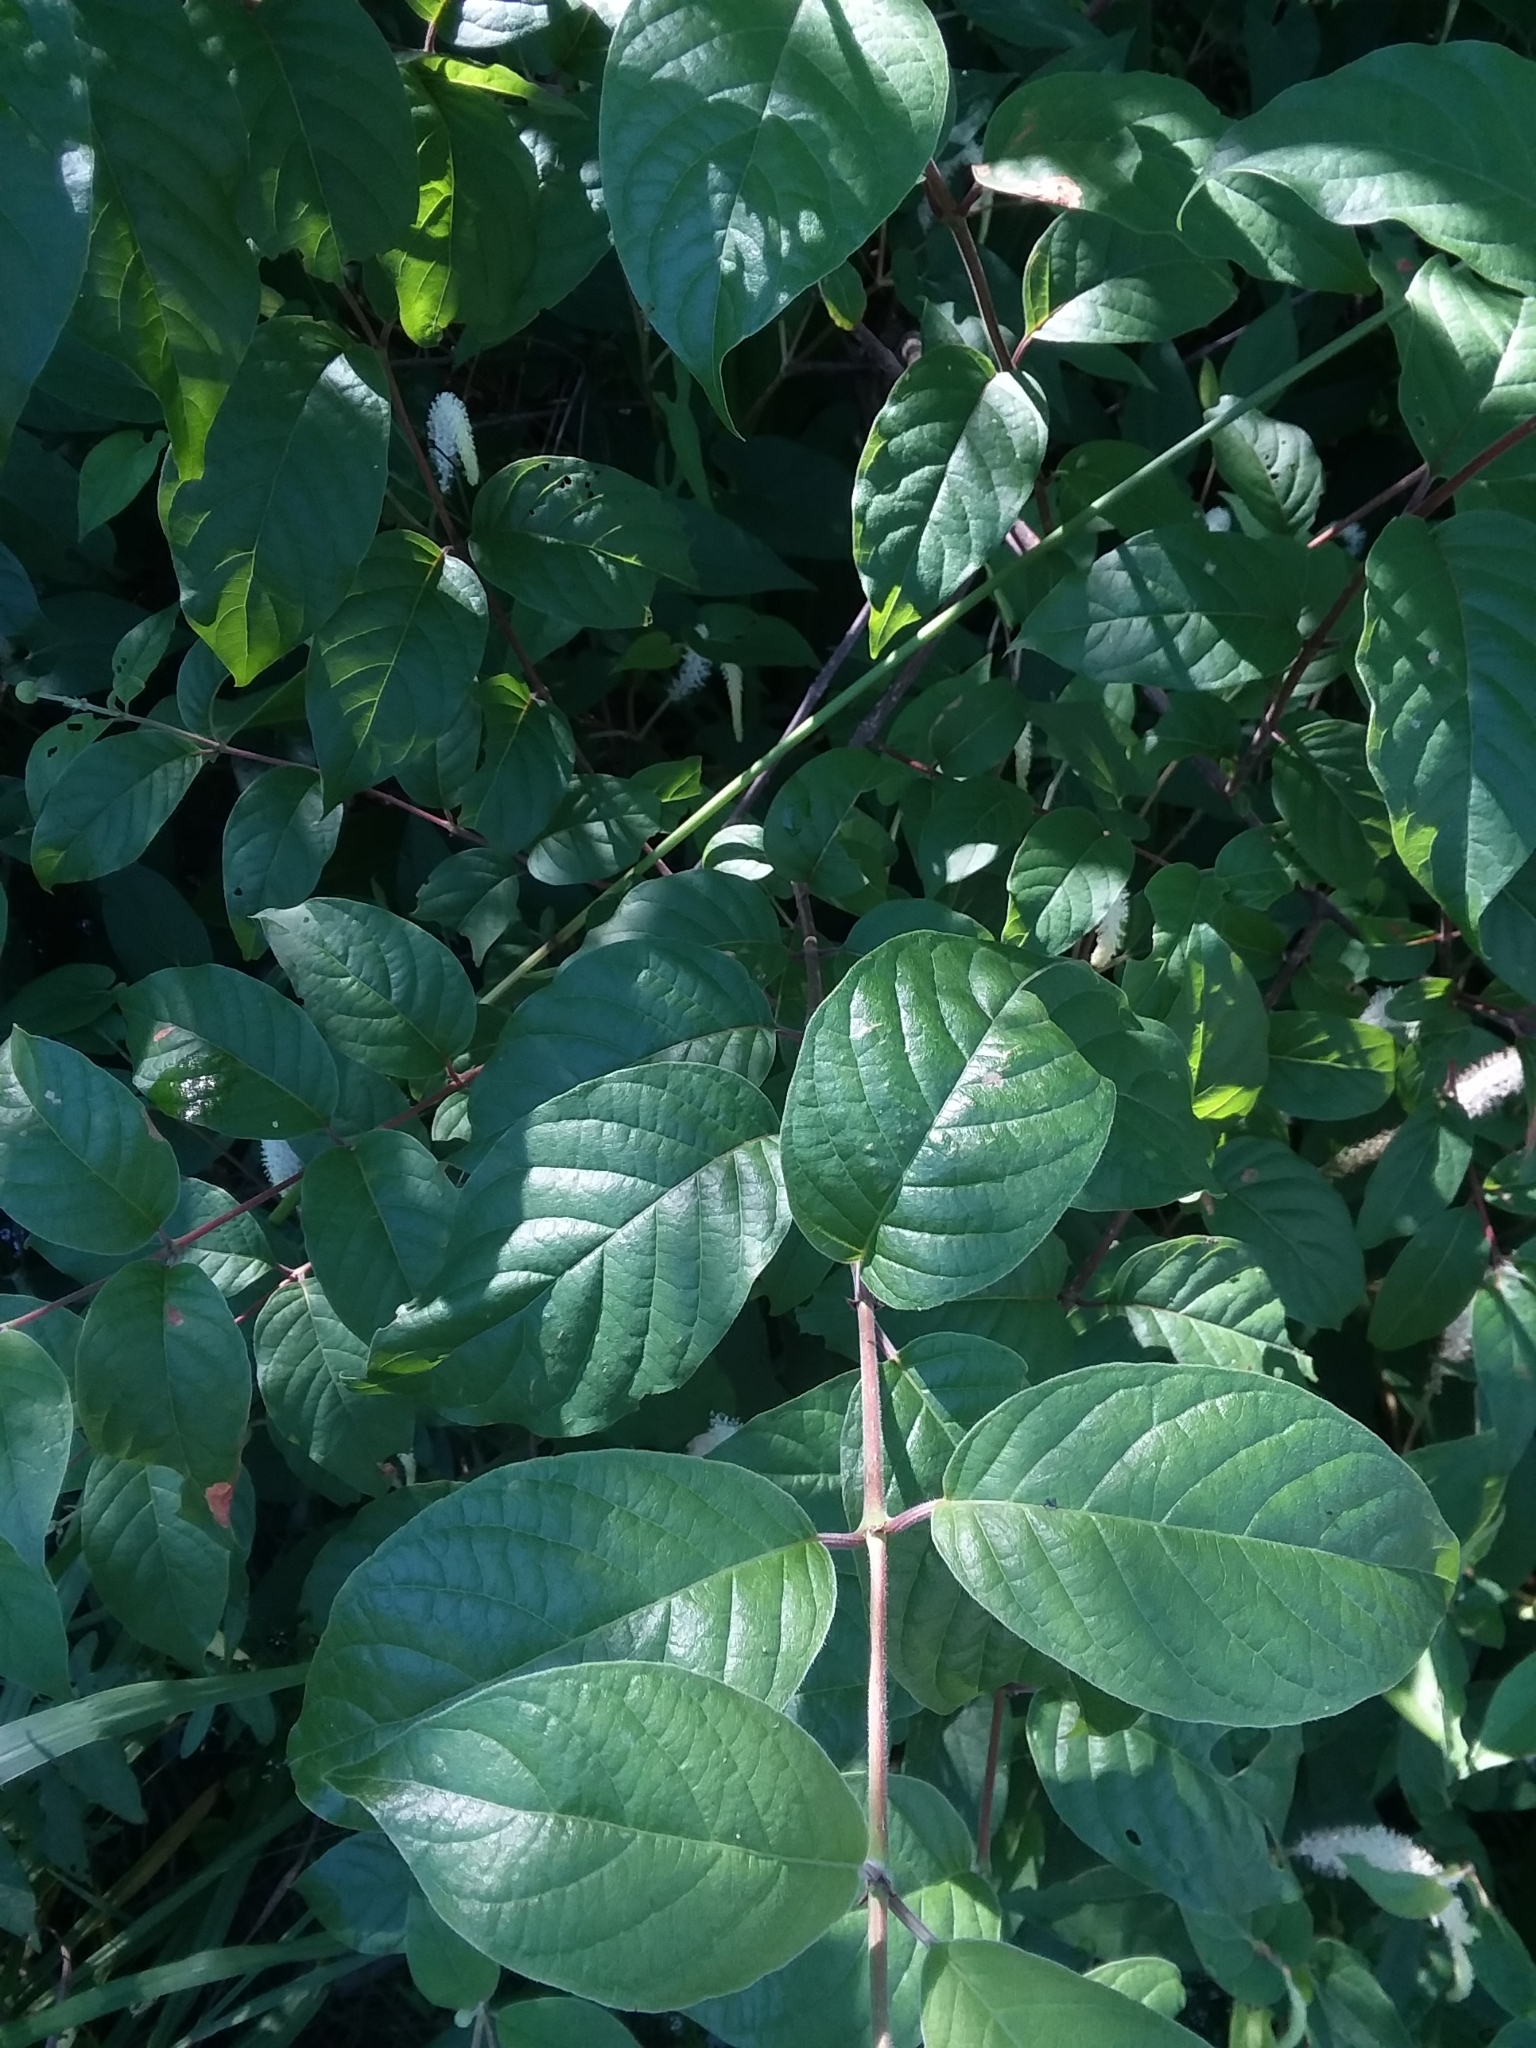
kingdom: Plantae
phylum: Tracheophyta
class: Magnoliopsida
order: Gentianales
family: Rubiaceae
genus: Cephalanthus
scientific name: Cephalanthus occidentalis
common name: Button-willow
